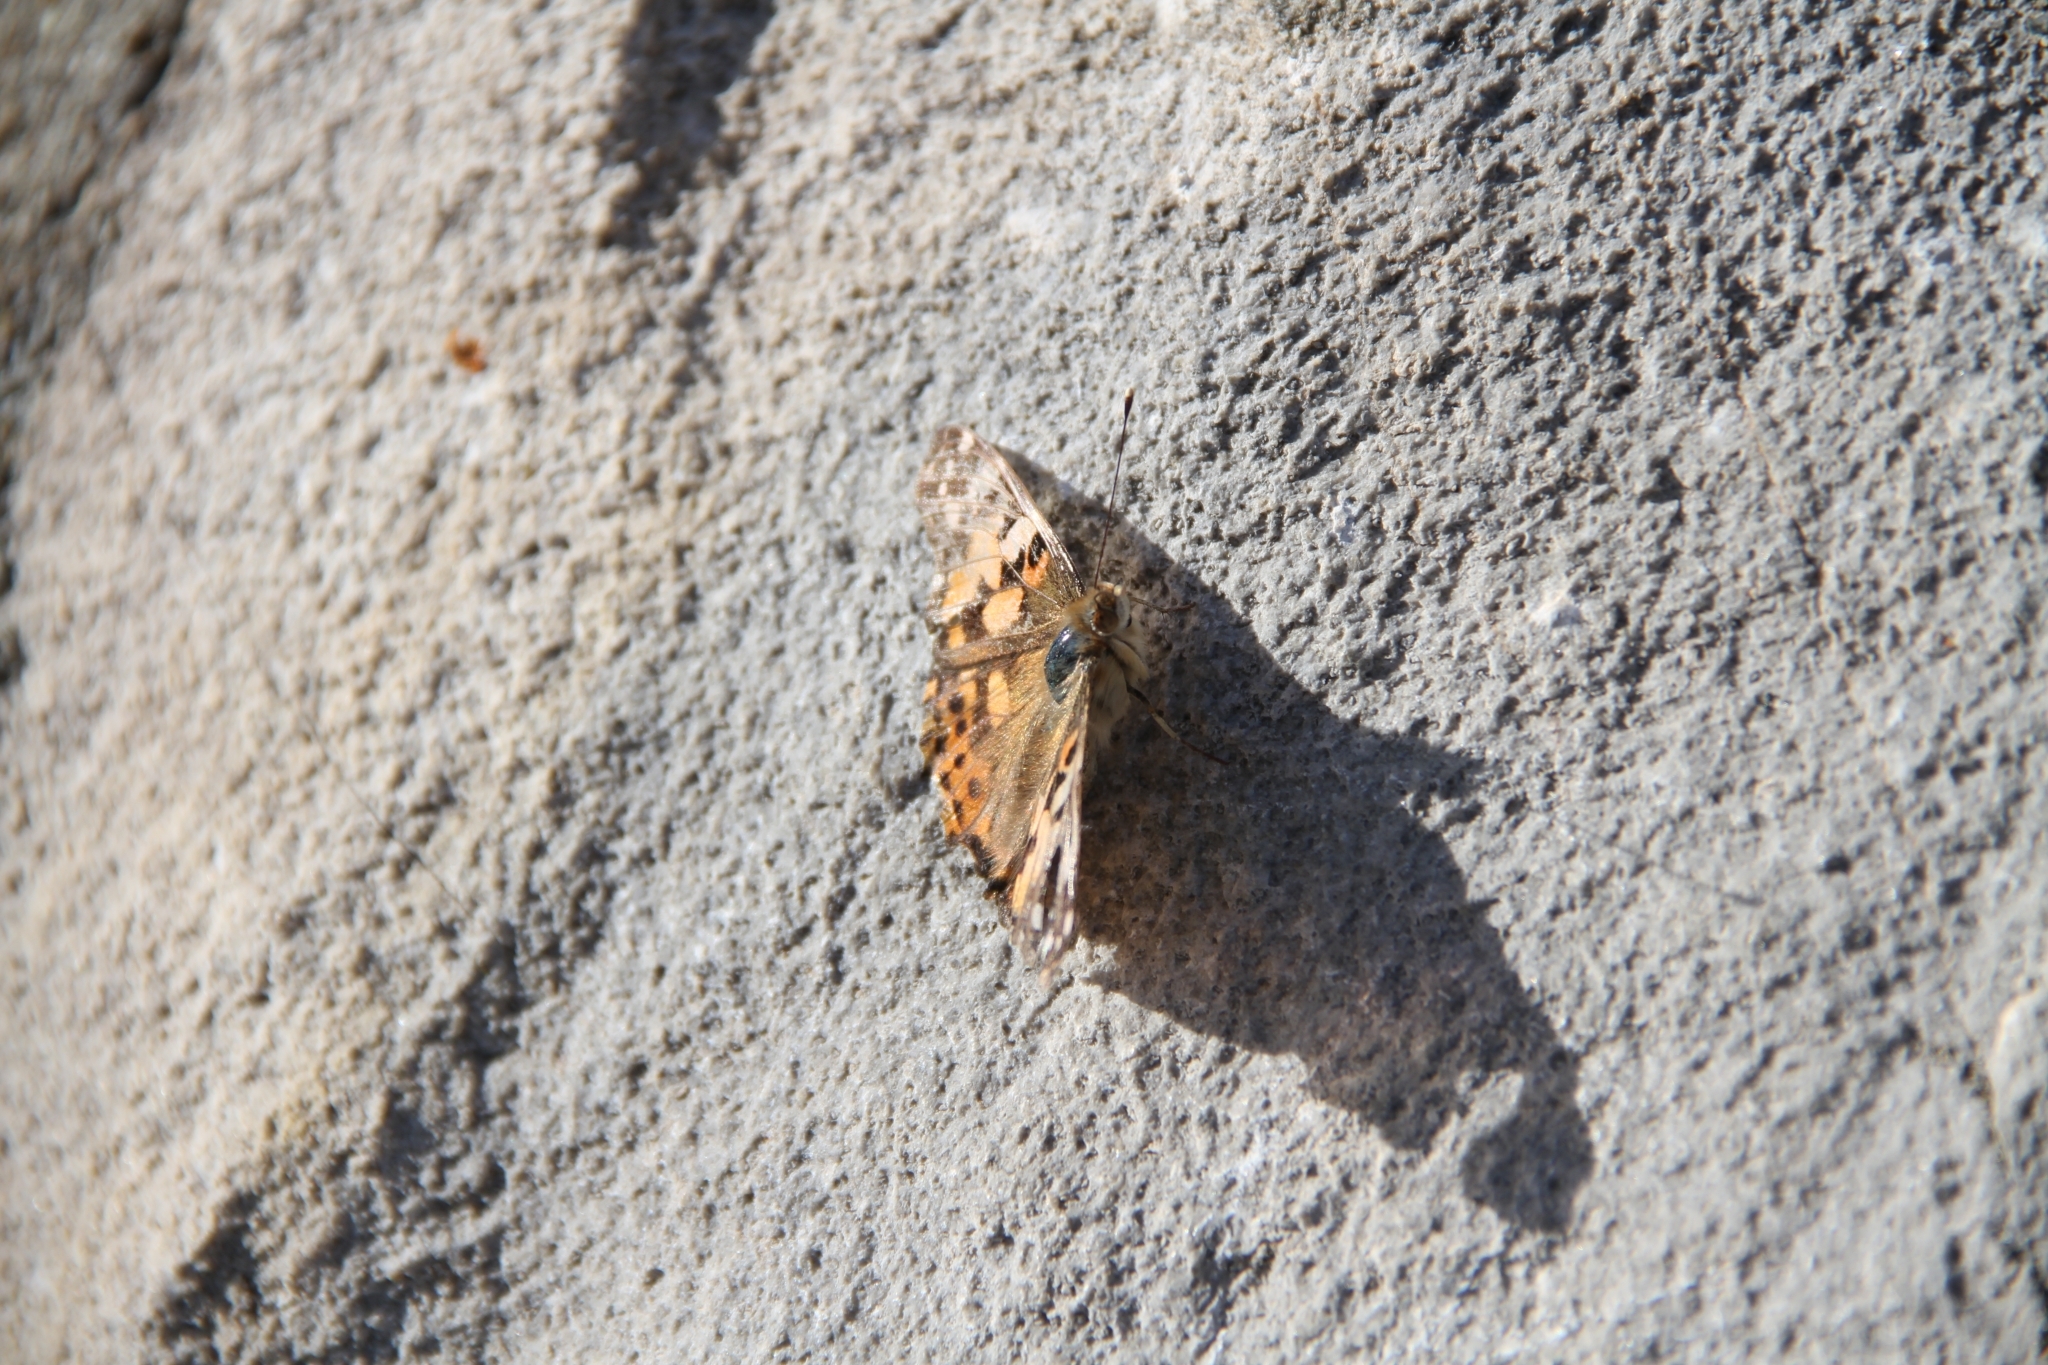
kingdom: Animalia
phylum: Arthropoda
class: Insecta
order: Lepidoptera
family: Nymphalidae
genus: Vanessa
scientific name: Vanessa cardui
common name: Painted lady
